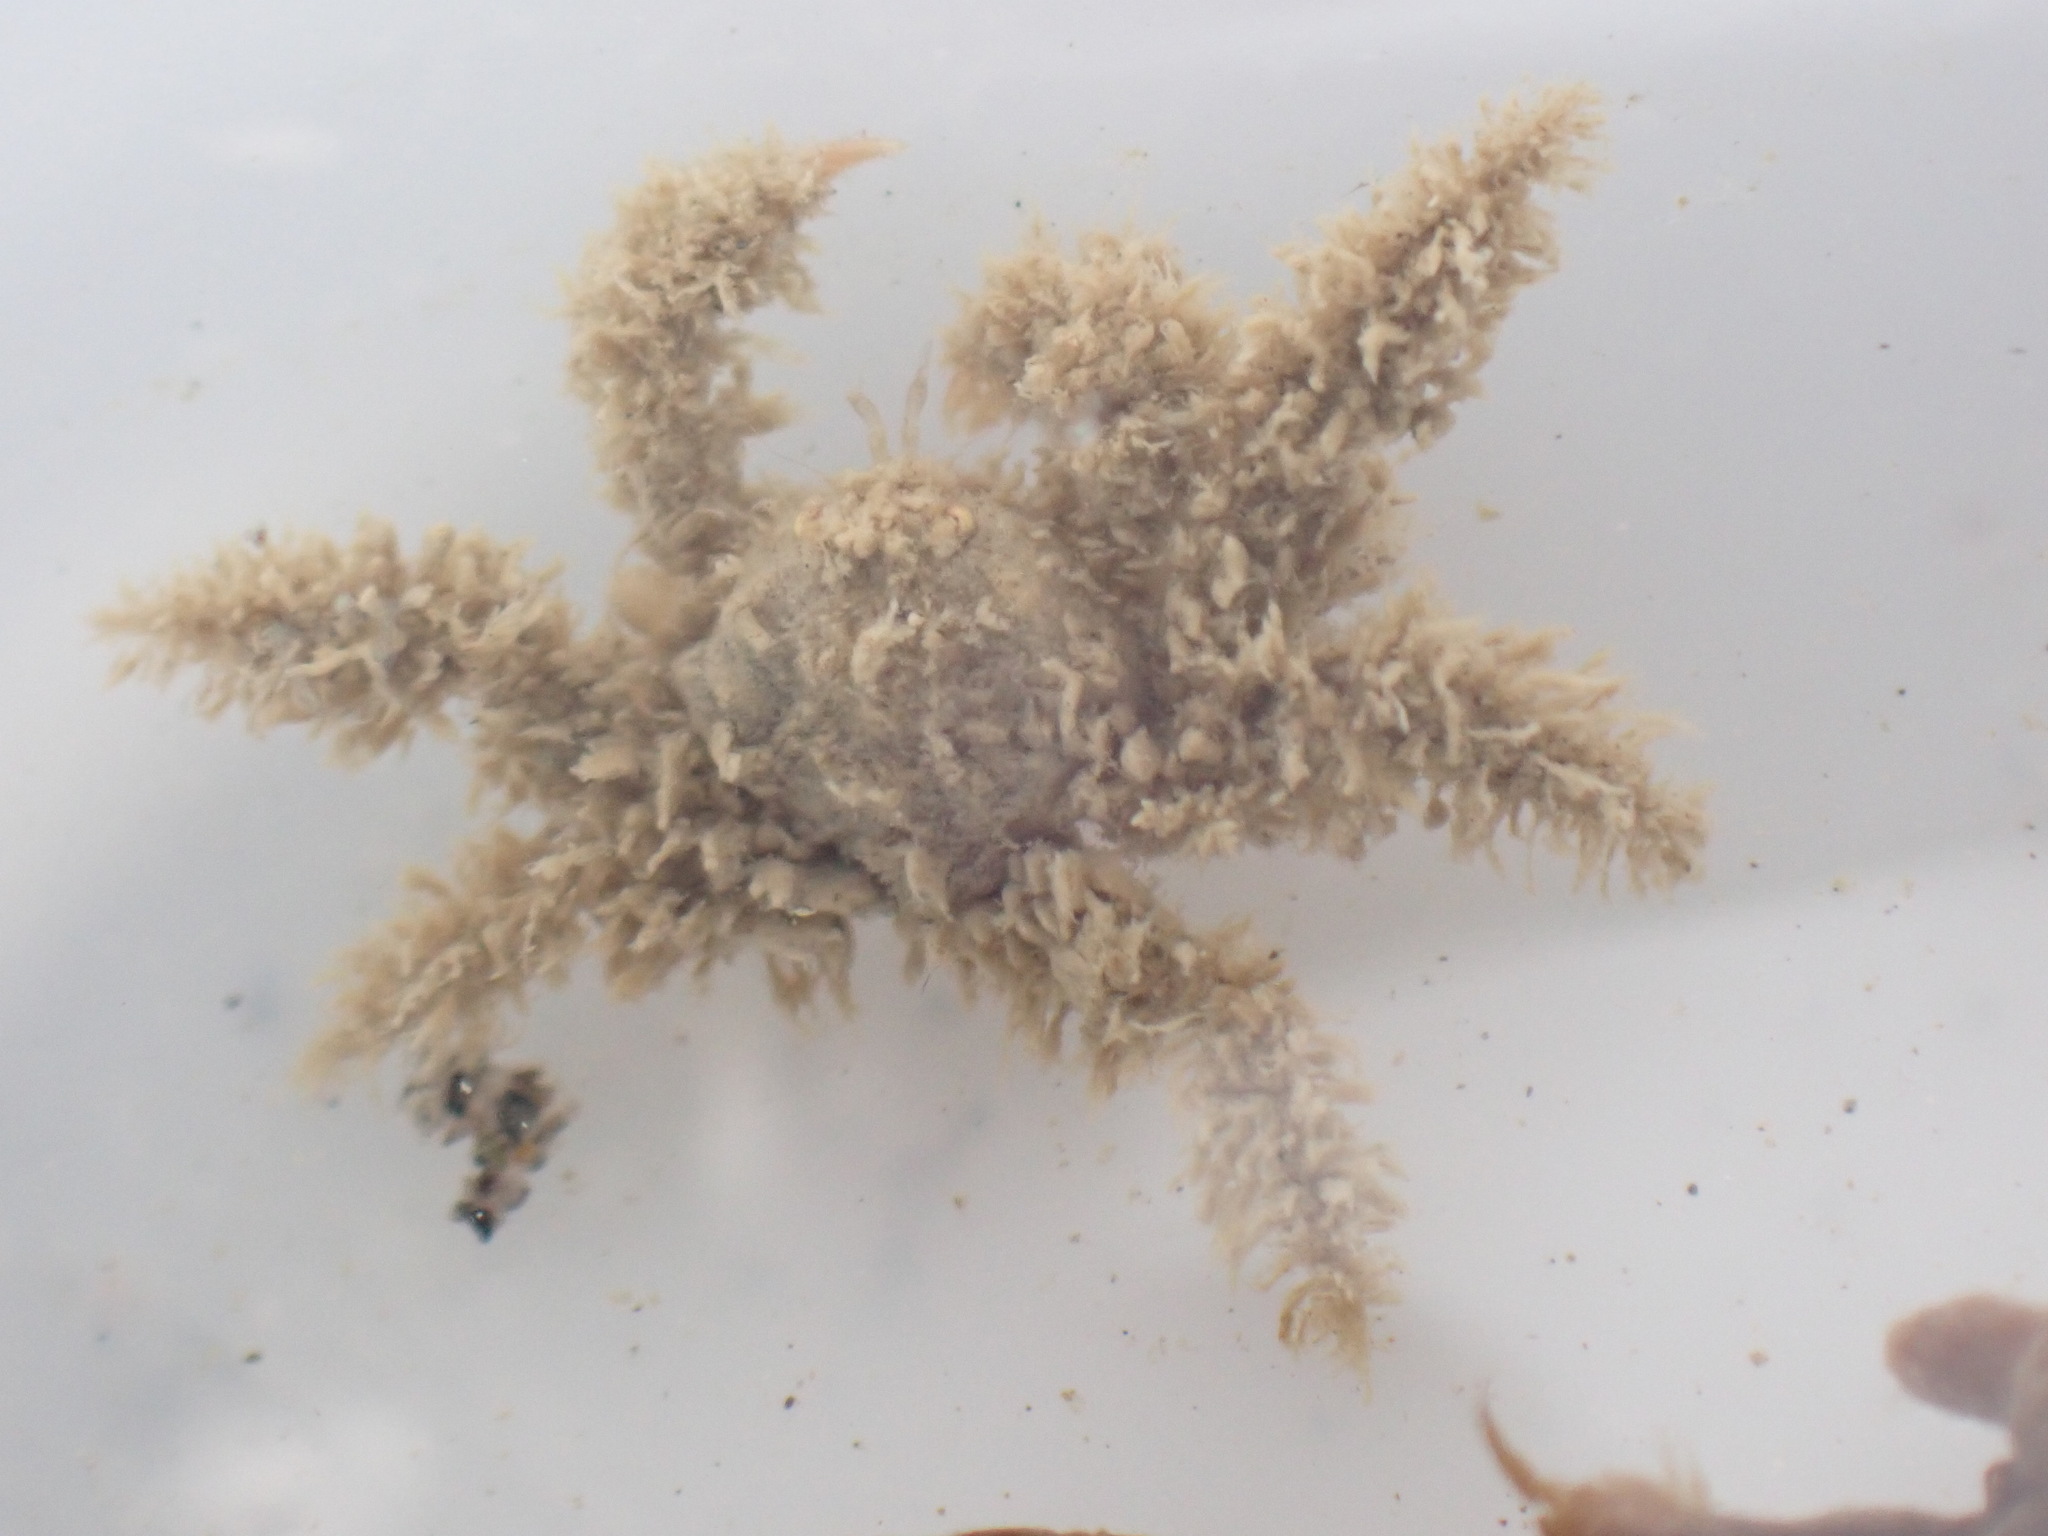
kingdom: Animalia
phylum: Arthropoda
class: Malacostraca
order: Decapoda
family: Hymenosomatidae
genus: Neohymenicus
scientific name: Neohymenicus pubescens
